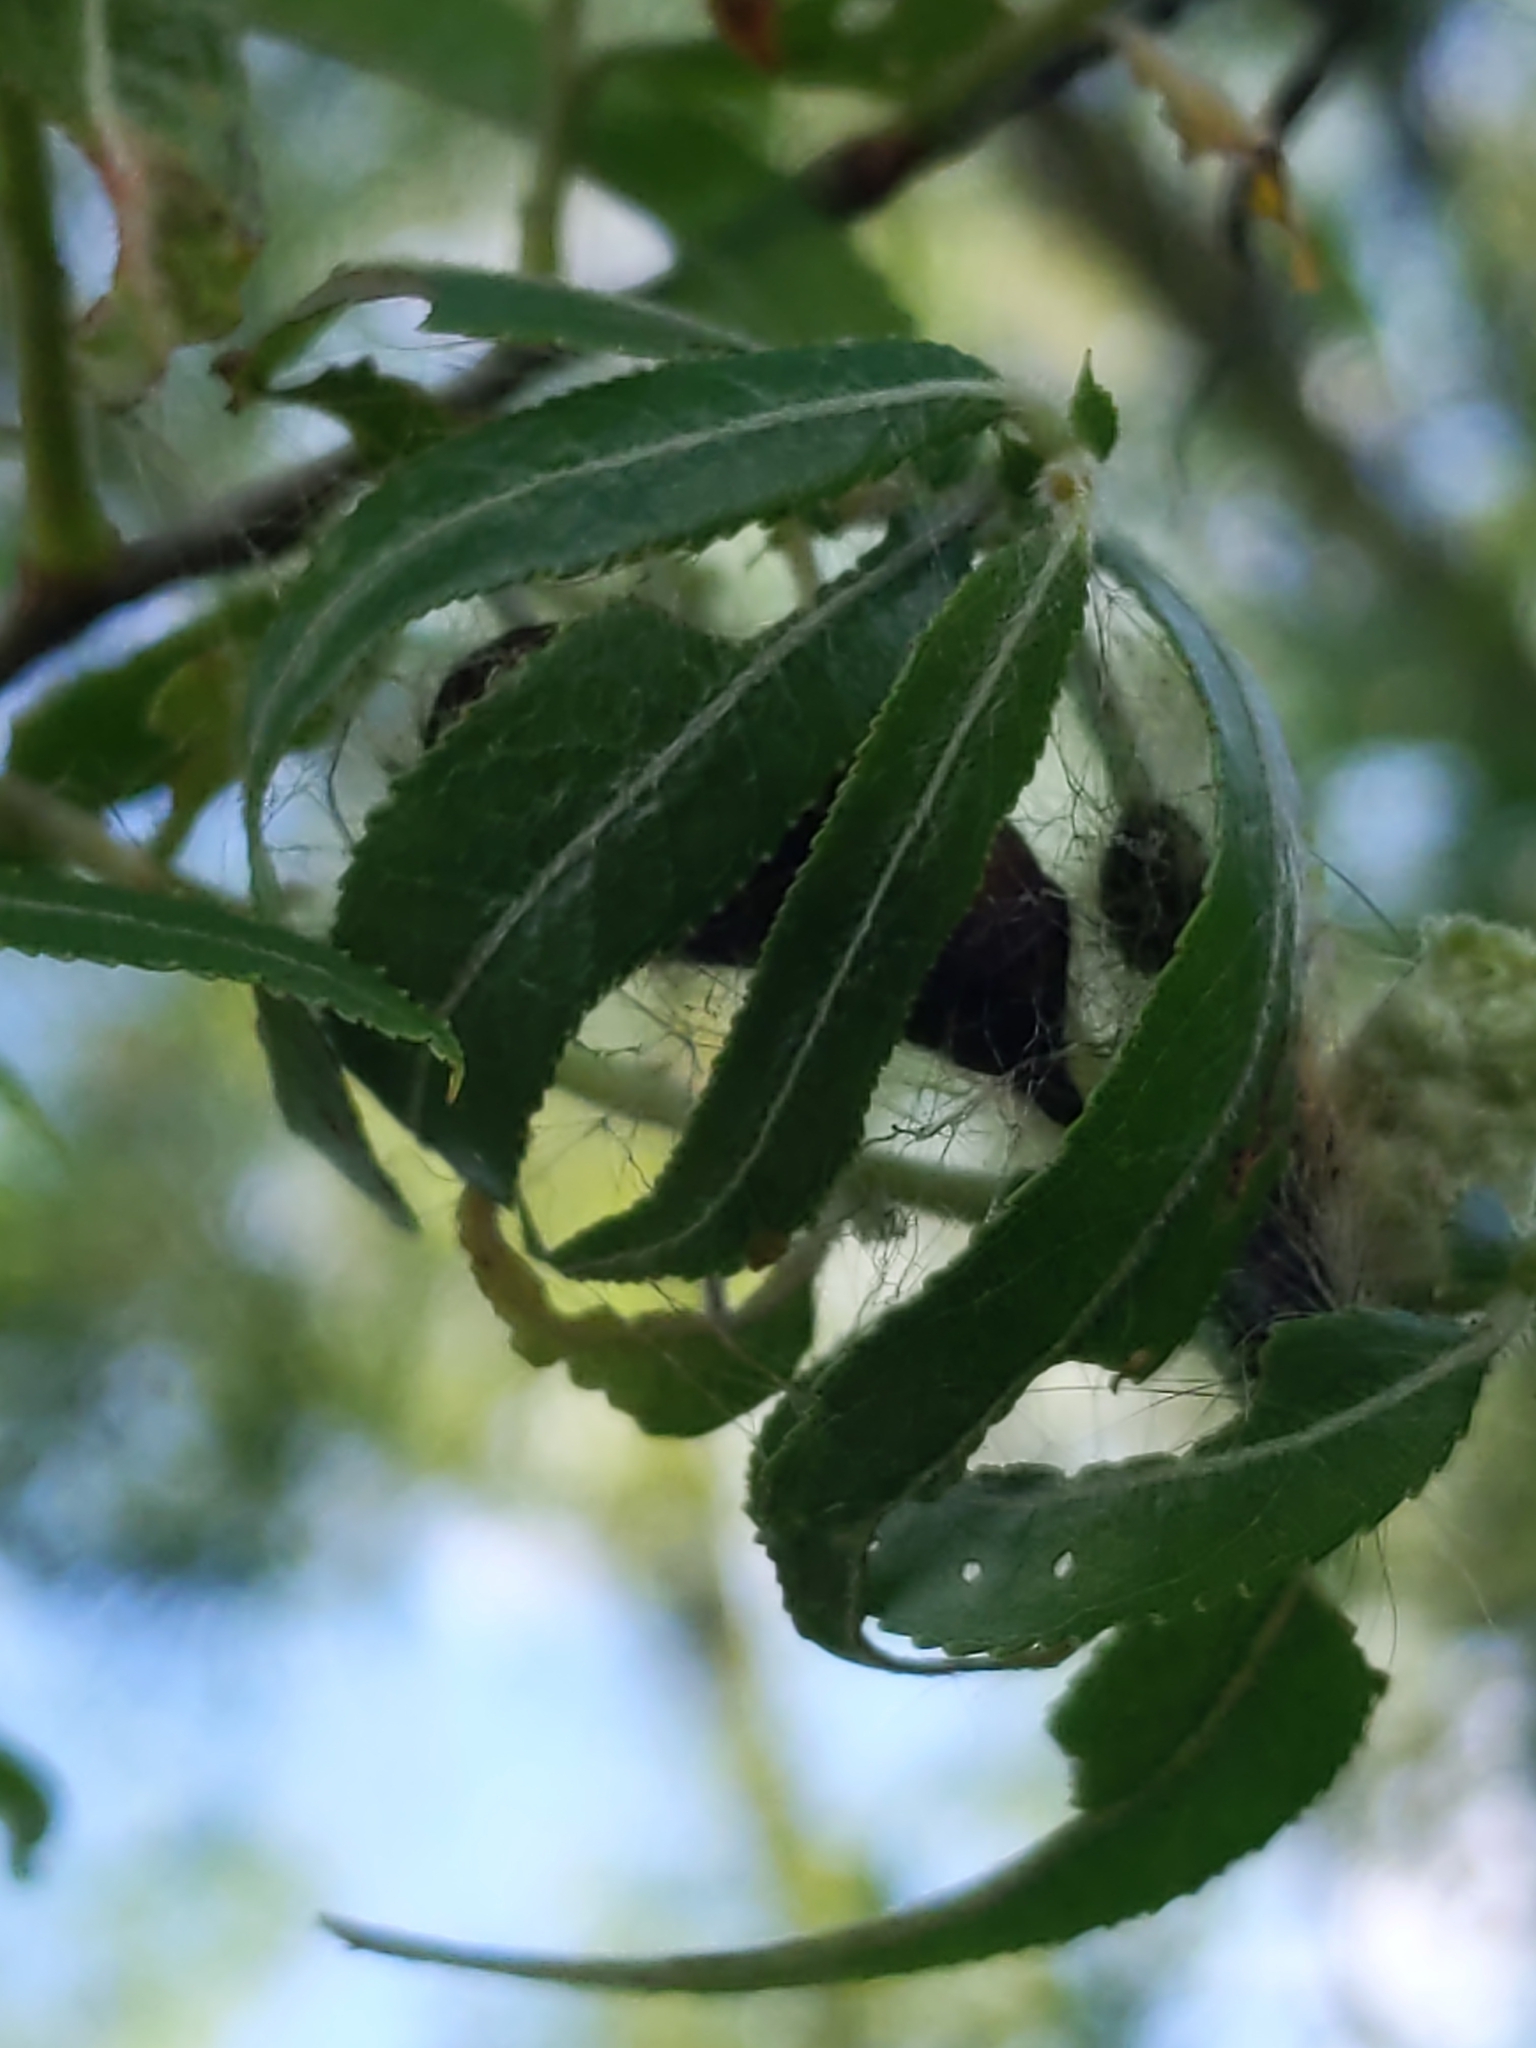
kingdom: Animalia
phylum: Arthropoda
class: Insecta
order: Lepidoptera
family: Erebidae
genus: Lymantria
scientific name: Lymantria dispar
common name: Gypsy moth
